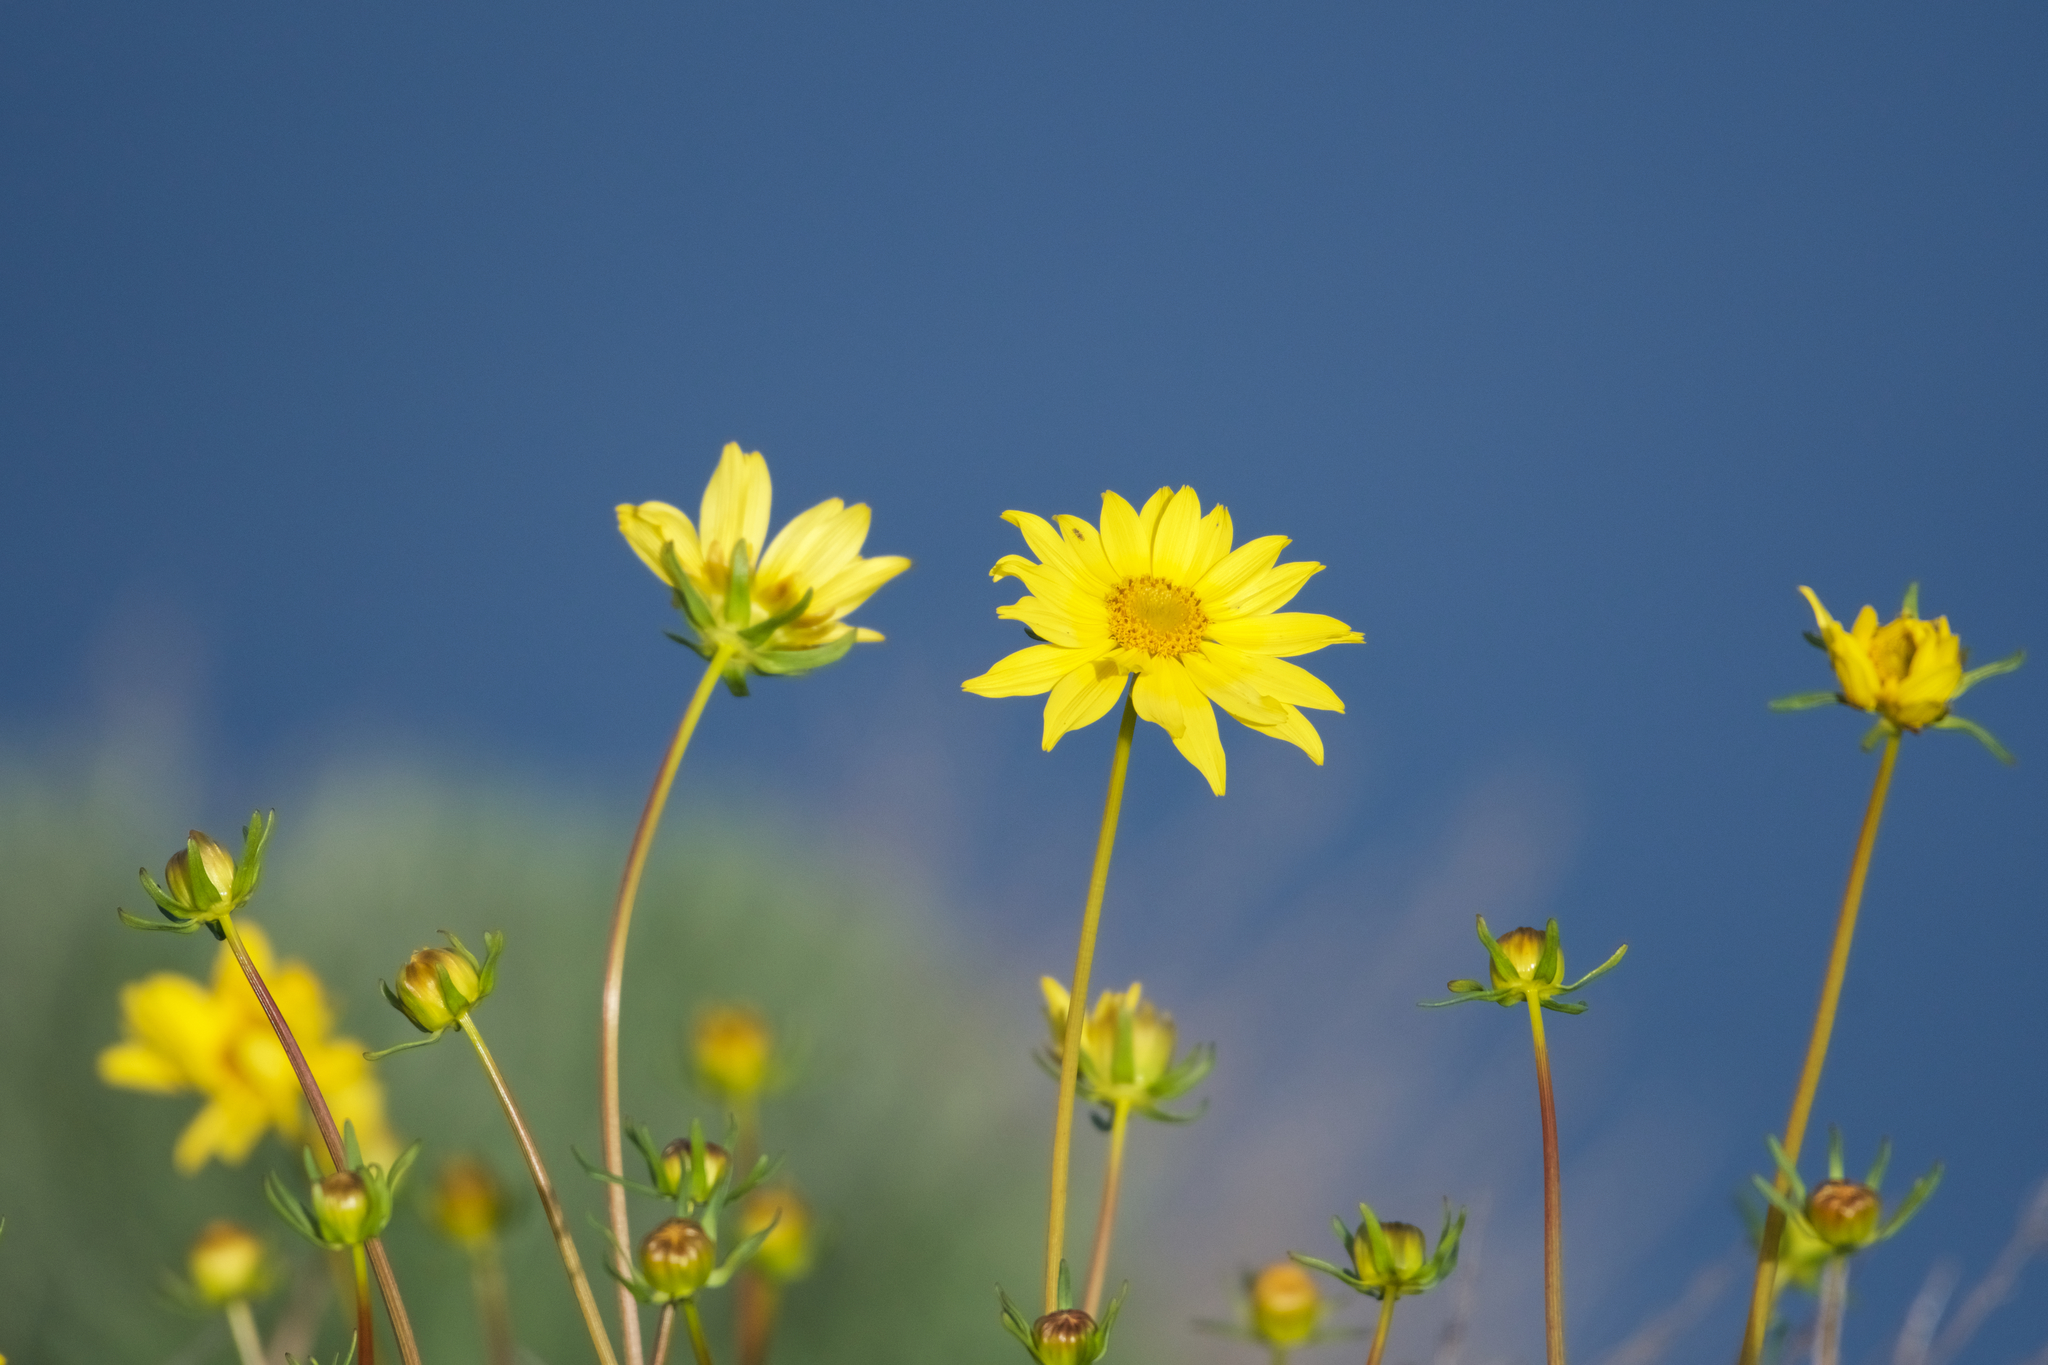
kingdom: Plantae
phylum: Tracheophyta
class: Magnoliopsida
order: Asterales
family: Asteraceae
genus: Coreopsis
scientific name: Coreopsis maritima
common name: Sea-dahlia
